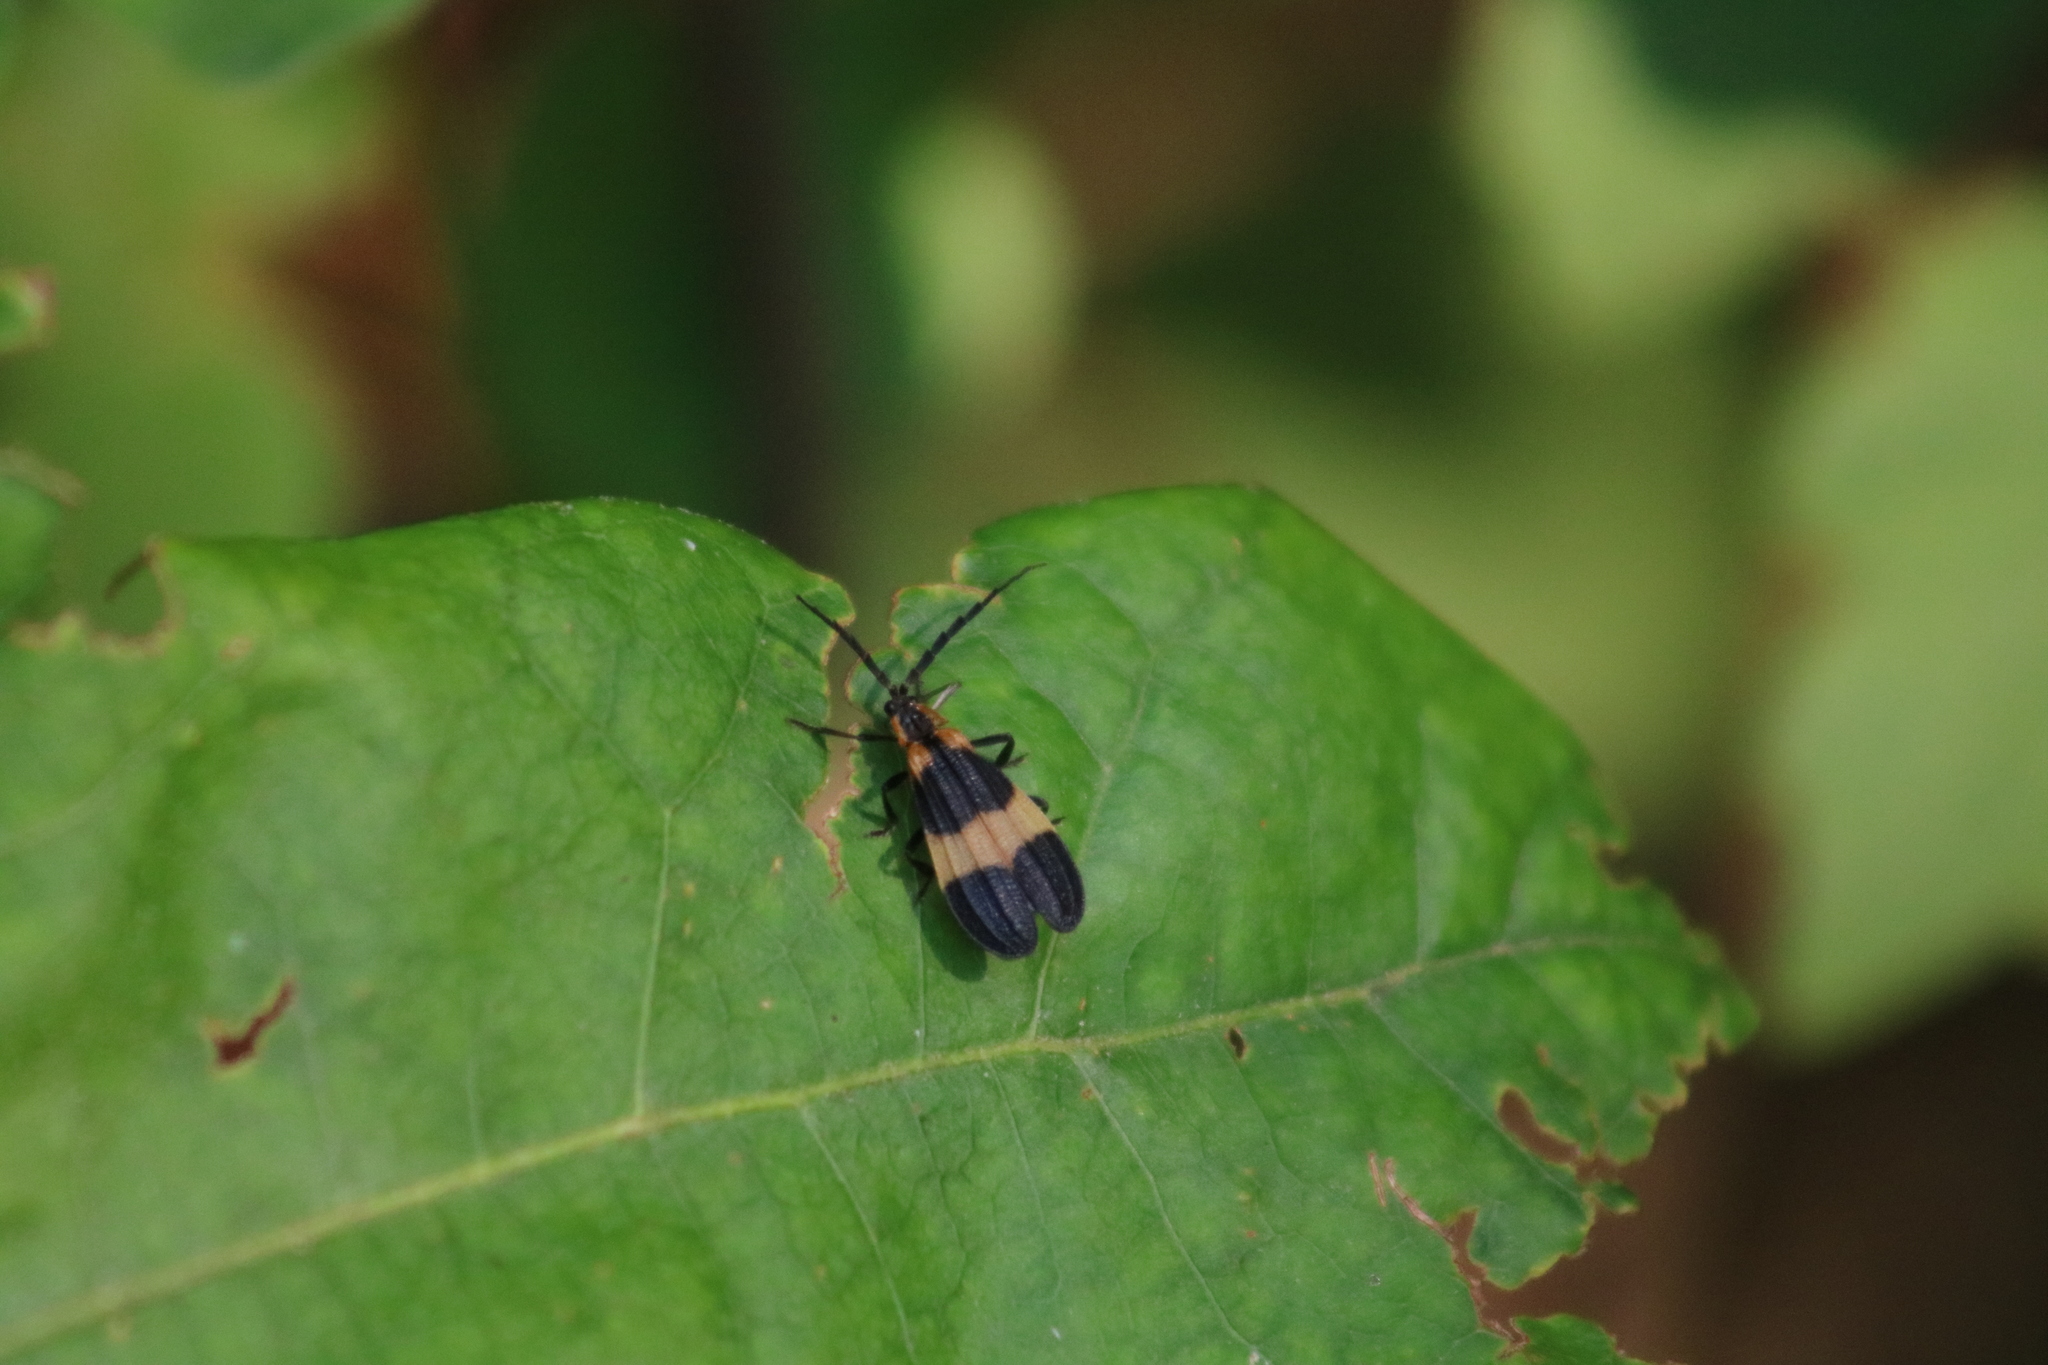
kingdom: Animalia
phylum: Arthropoda
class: Insecta
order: Coleoptera
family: Lycidae
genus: Calopteron
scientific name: Calopteron reticulatum
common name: Banded net-winged beetle
